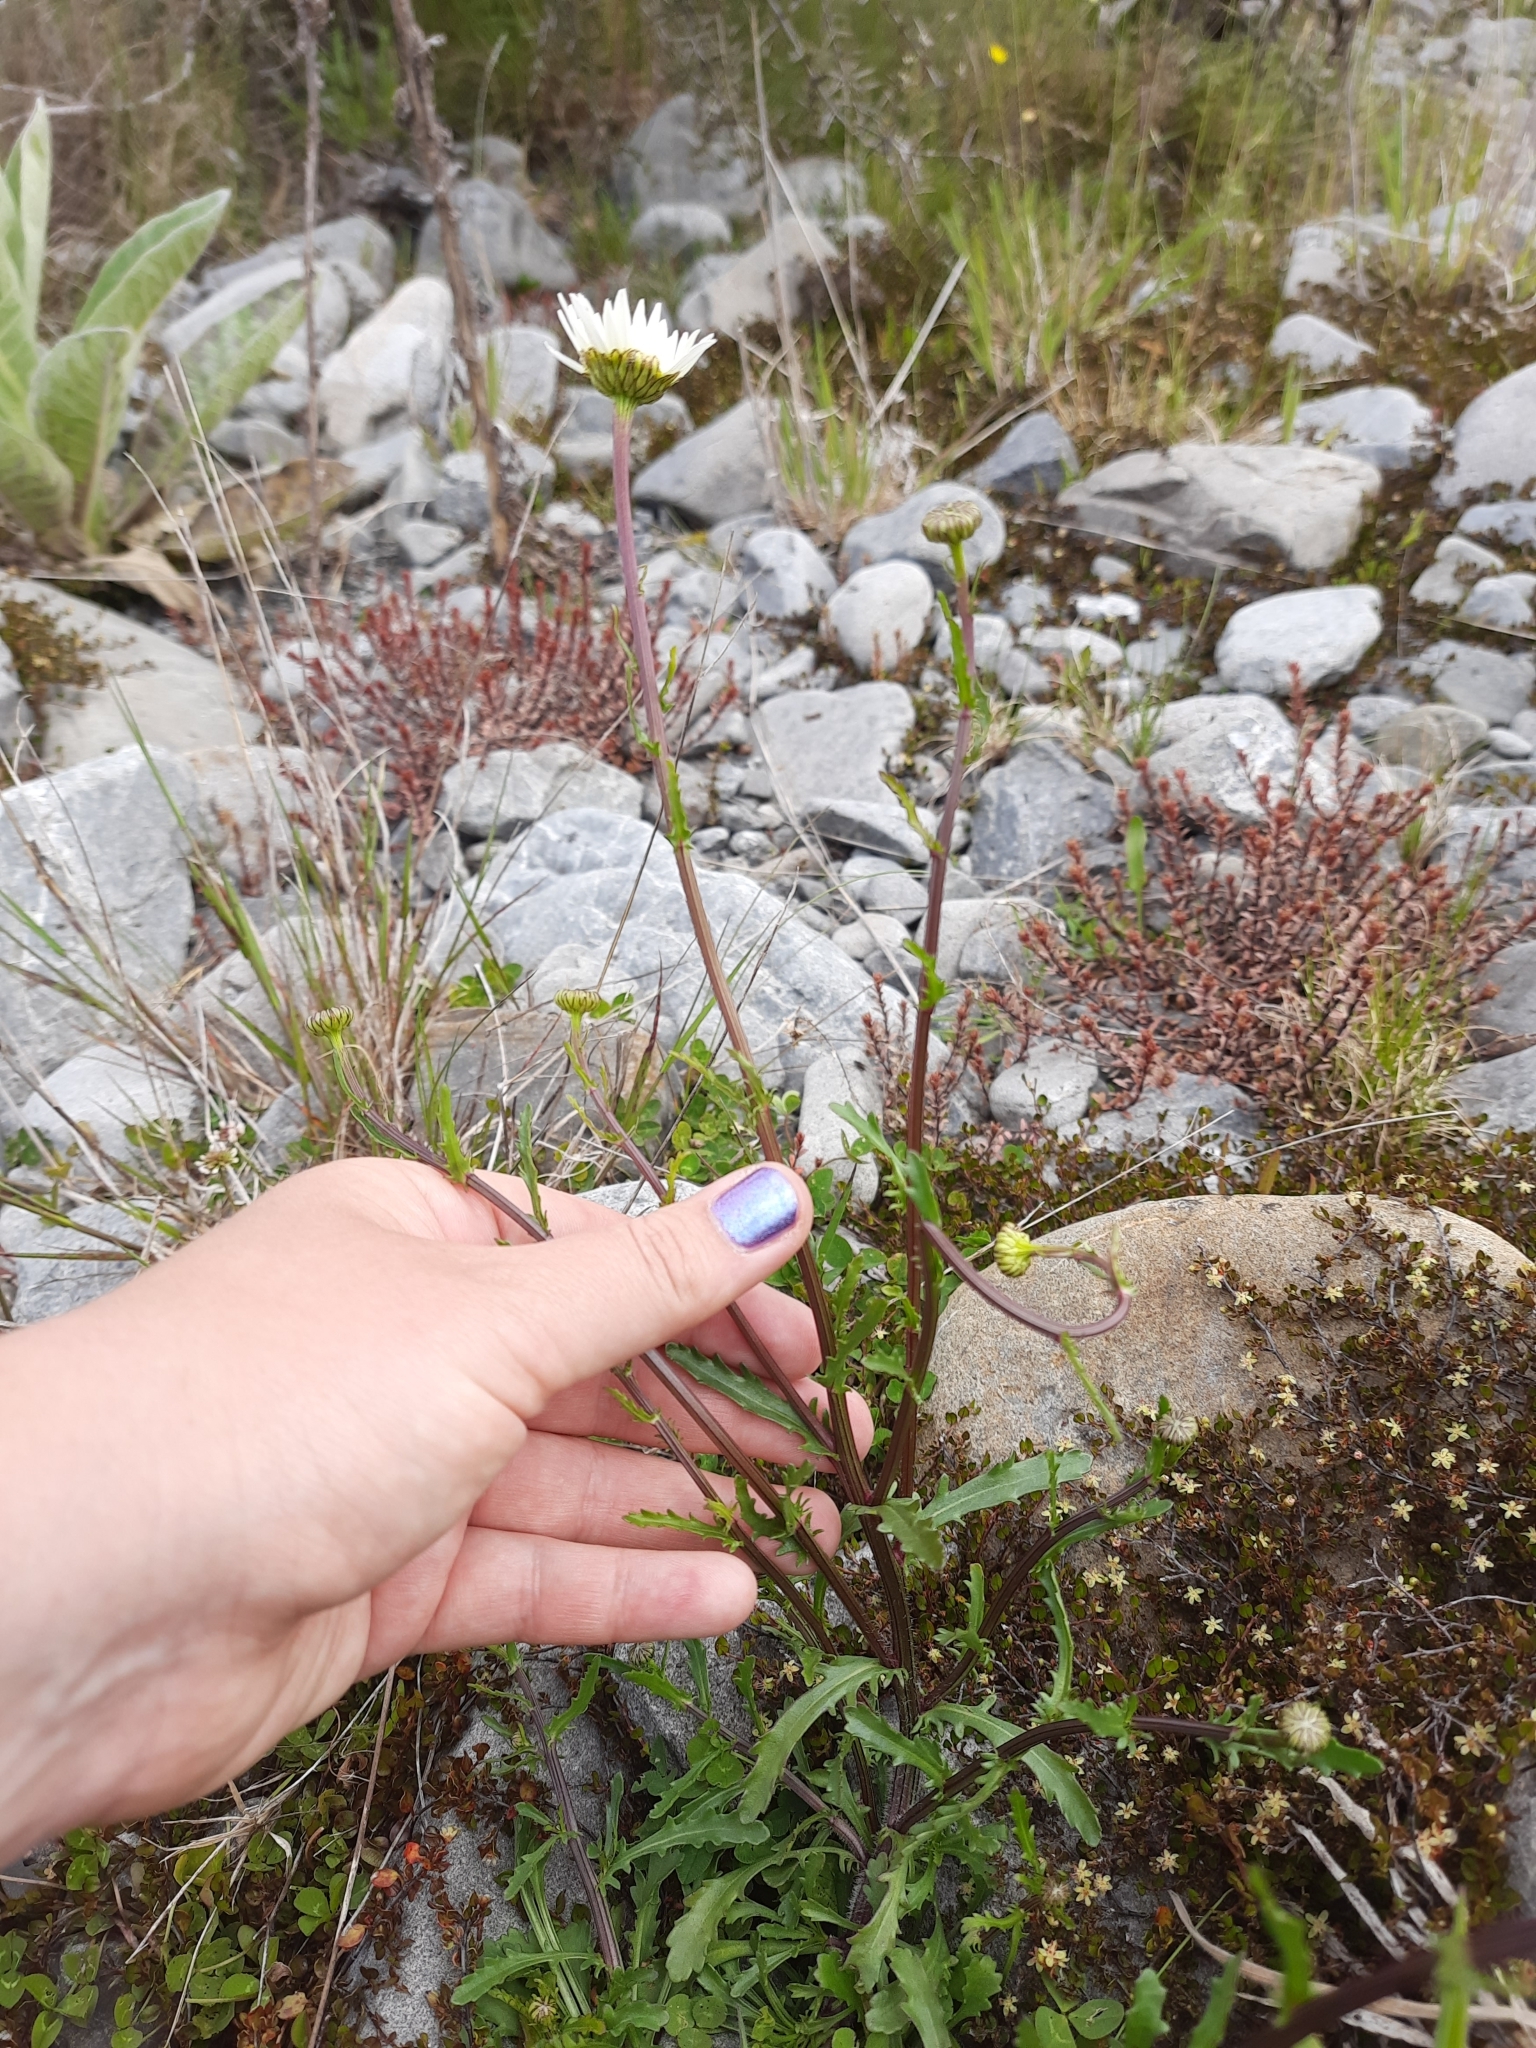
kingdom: Plantae
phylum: Tracheophyta
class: Magnoliopsida
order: Asterales
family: Asteraceae
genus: Leucanthemum
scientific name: Leucanthemum vulgare
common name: Oxeye daisy
